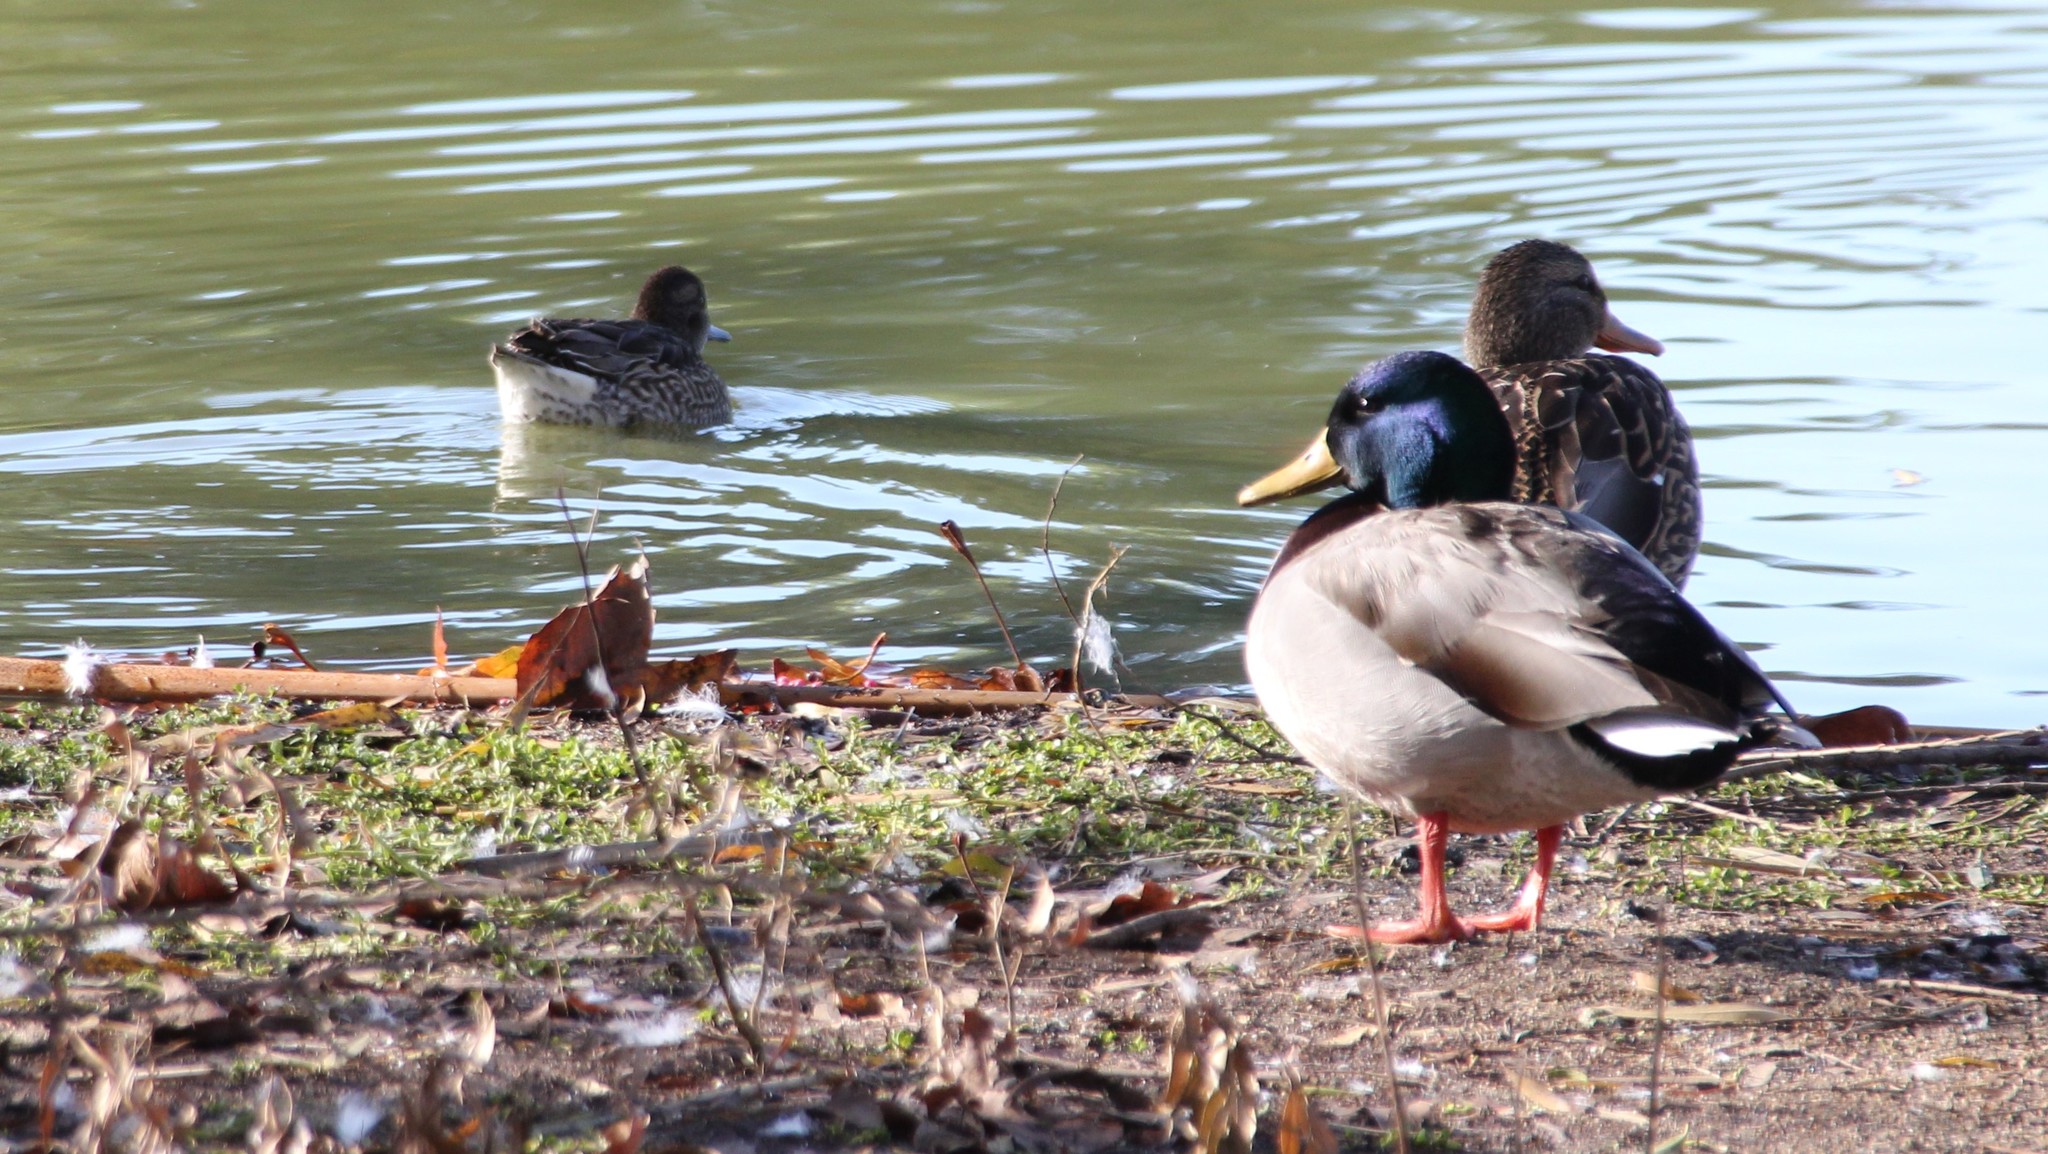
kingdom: Animalia
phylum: Chordata
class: Aves
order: Anseriformes
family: Anatidae
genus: Anas
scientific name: Anas crecca
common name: Eurasian teal
